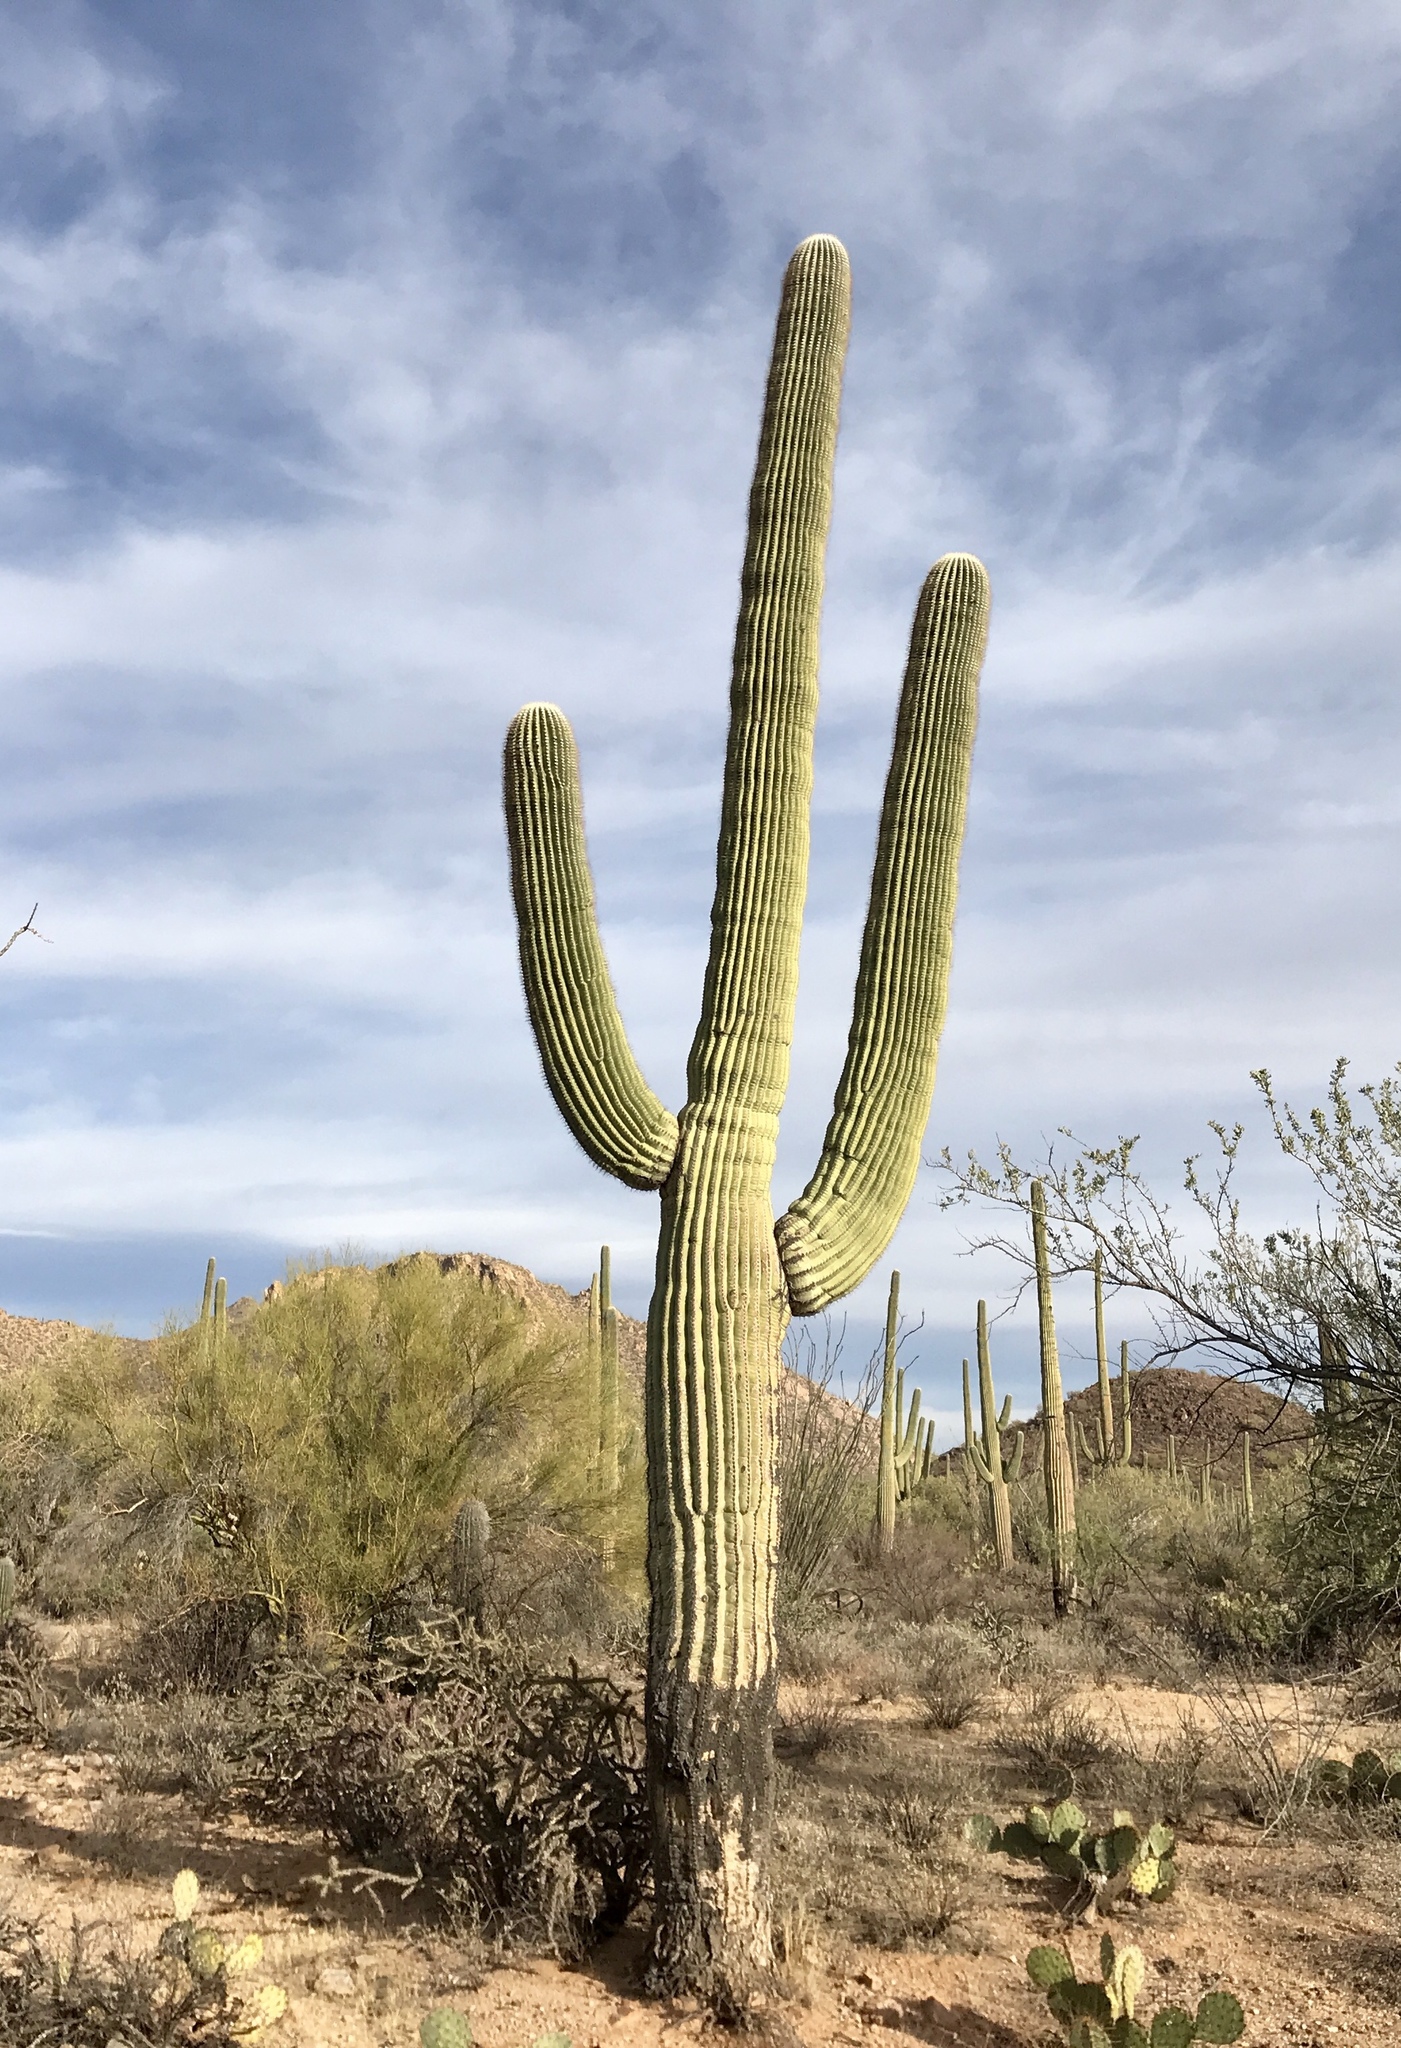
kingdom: Plantae
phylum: Tracheophyta
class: Magnoliopsida
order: Caryophyllales
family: Cactaceae
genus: Carnegiea
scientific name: Carnegiea gigantea
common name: Saguaro
